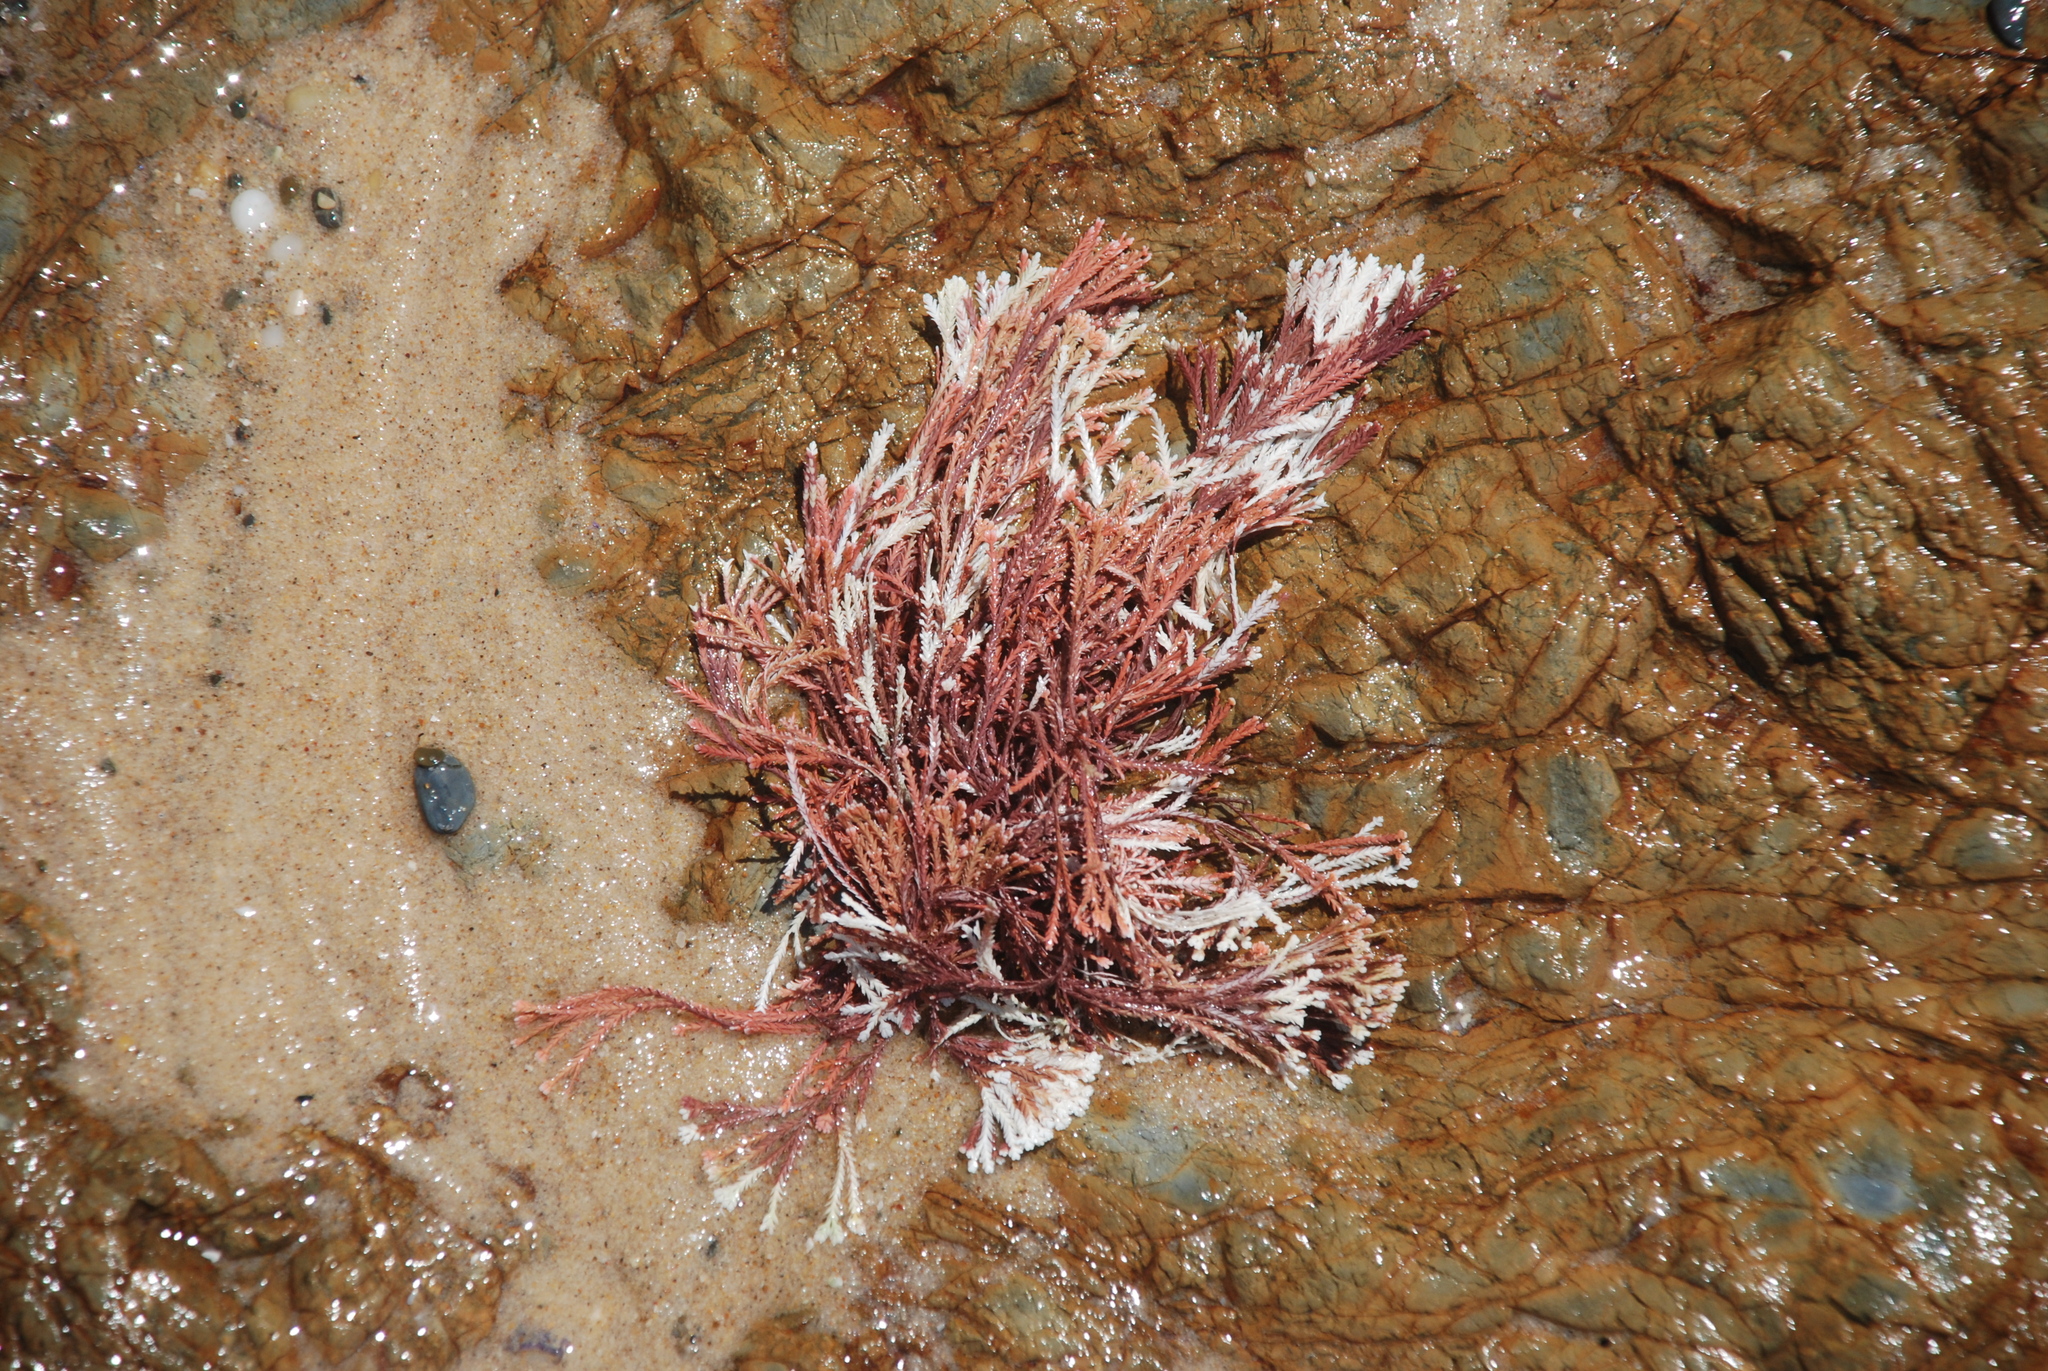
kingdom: Plantae
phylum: Rhodophyta
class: Florideophyceae
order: Corallinales
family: Corallinaceae
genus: Jania
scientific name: Jania sagittata
